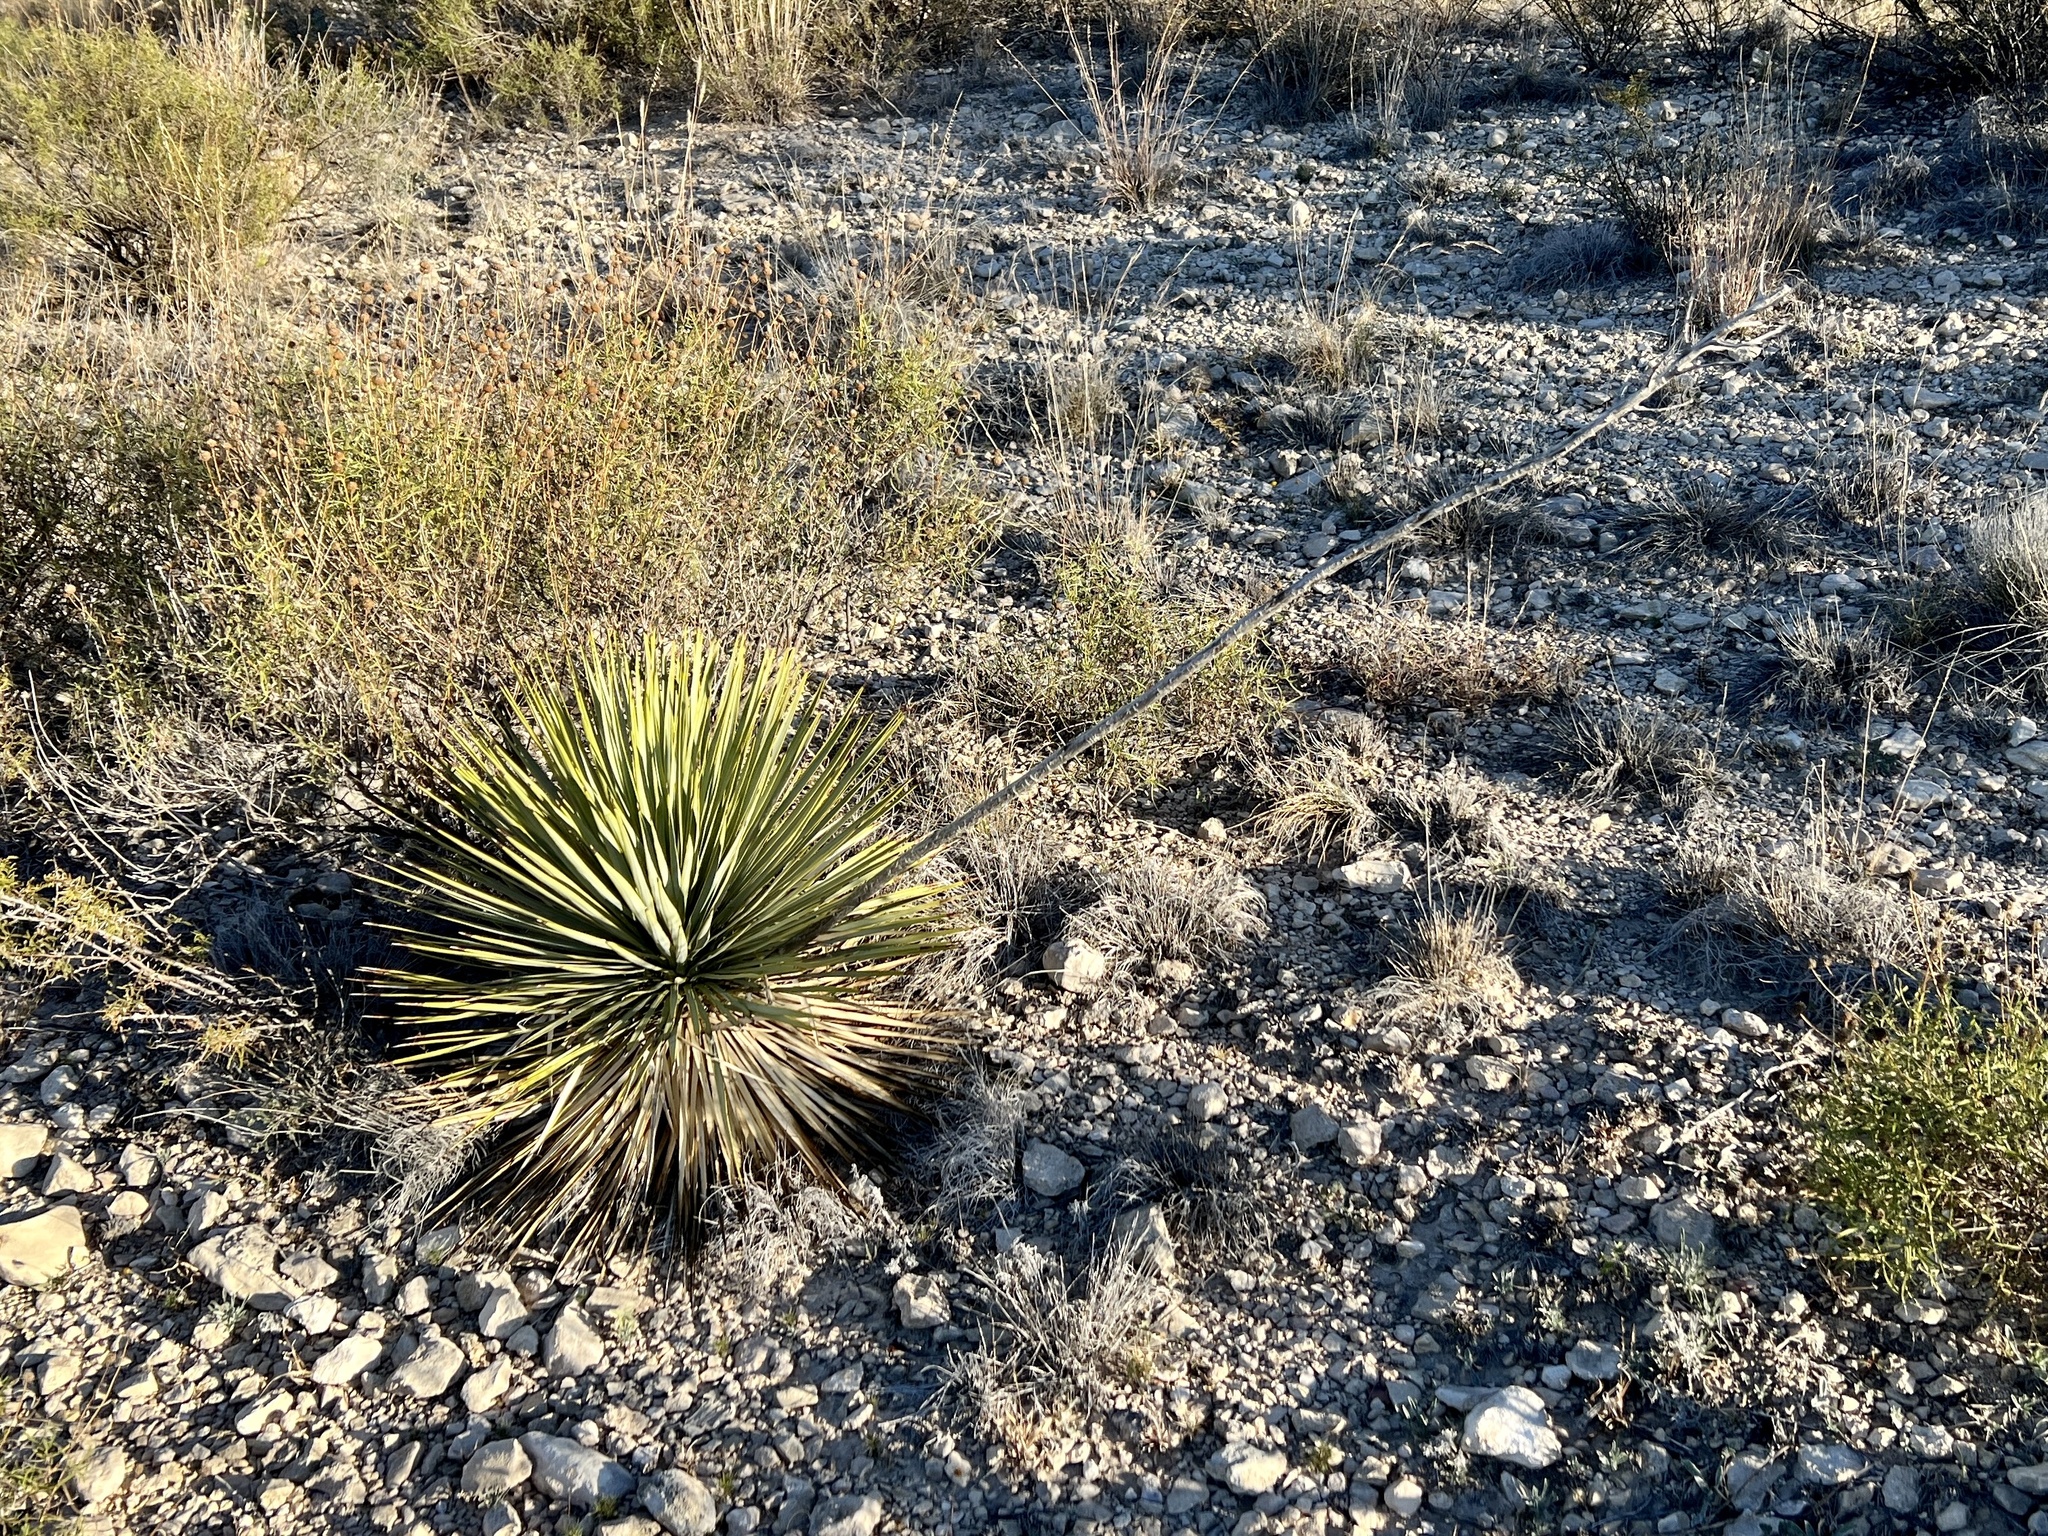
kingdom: Plantae
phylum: Tracheophyta
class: Liliopsida
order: Asparagales
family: Asparagaceae
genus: Yucca
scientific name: Yucca thompsoniana
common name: Trans-pecos yucca
